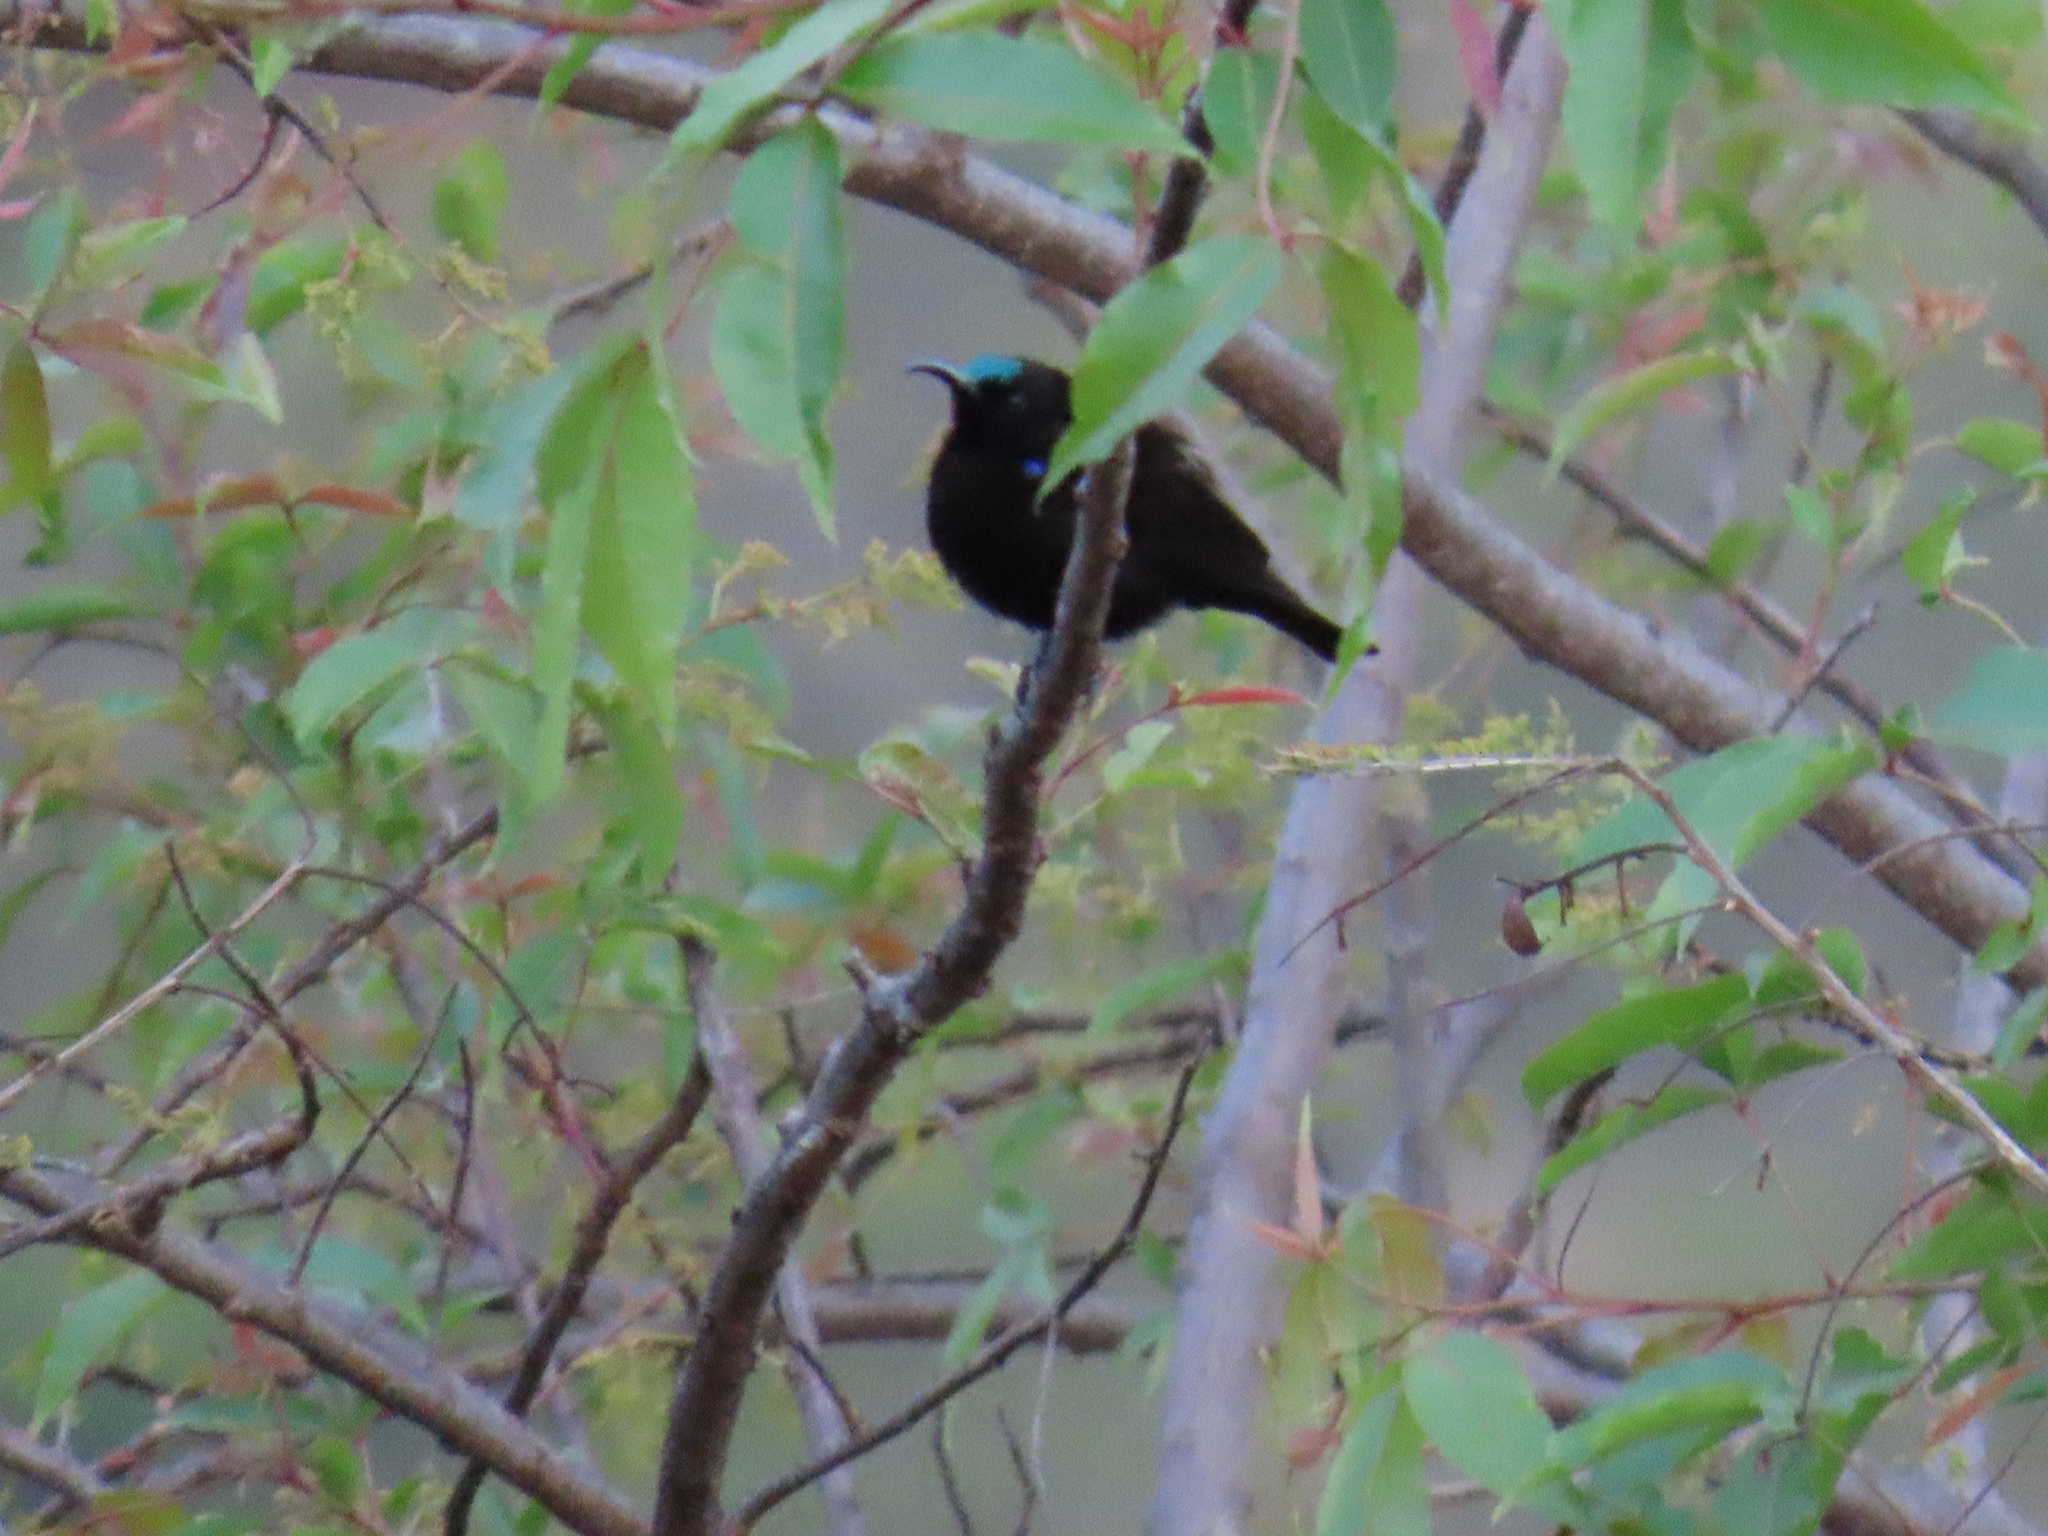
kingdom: Animalia
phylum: Chordata
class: Aves
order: Passeriformes
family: Nectariniidae
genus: Chalcomitra
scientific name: Chalcomitra amethystina
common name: Amethyst sunbird
